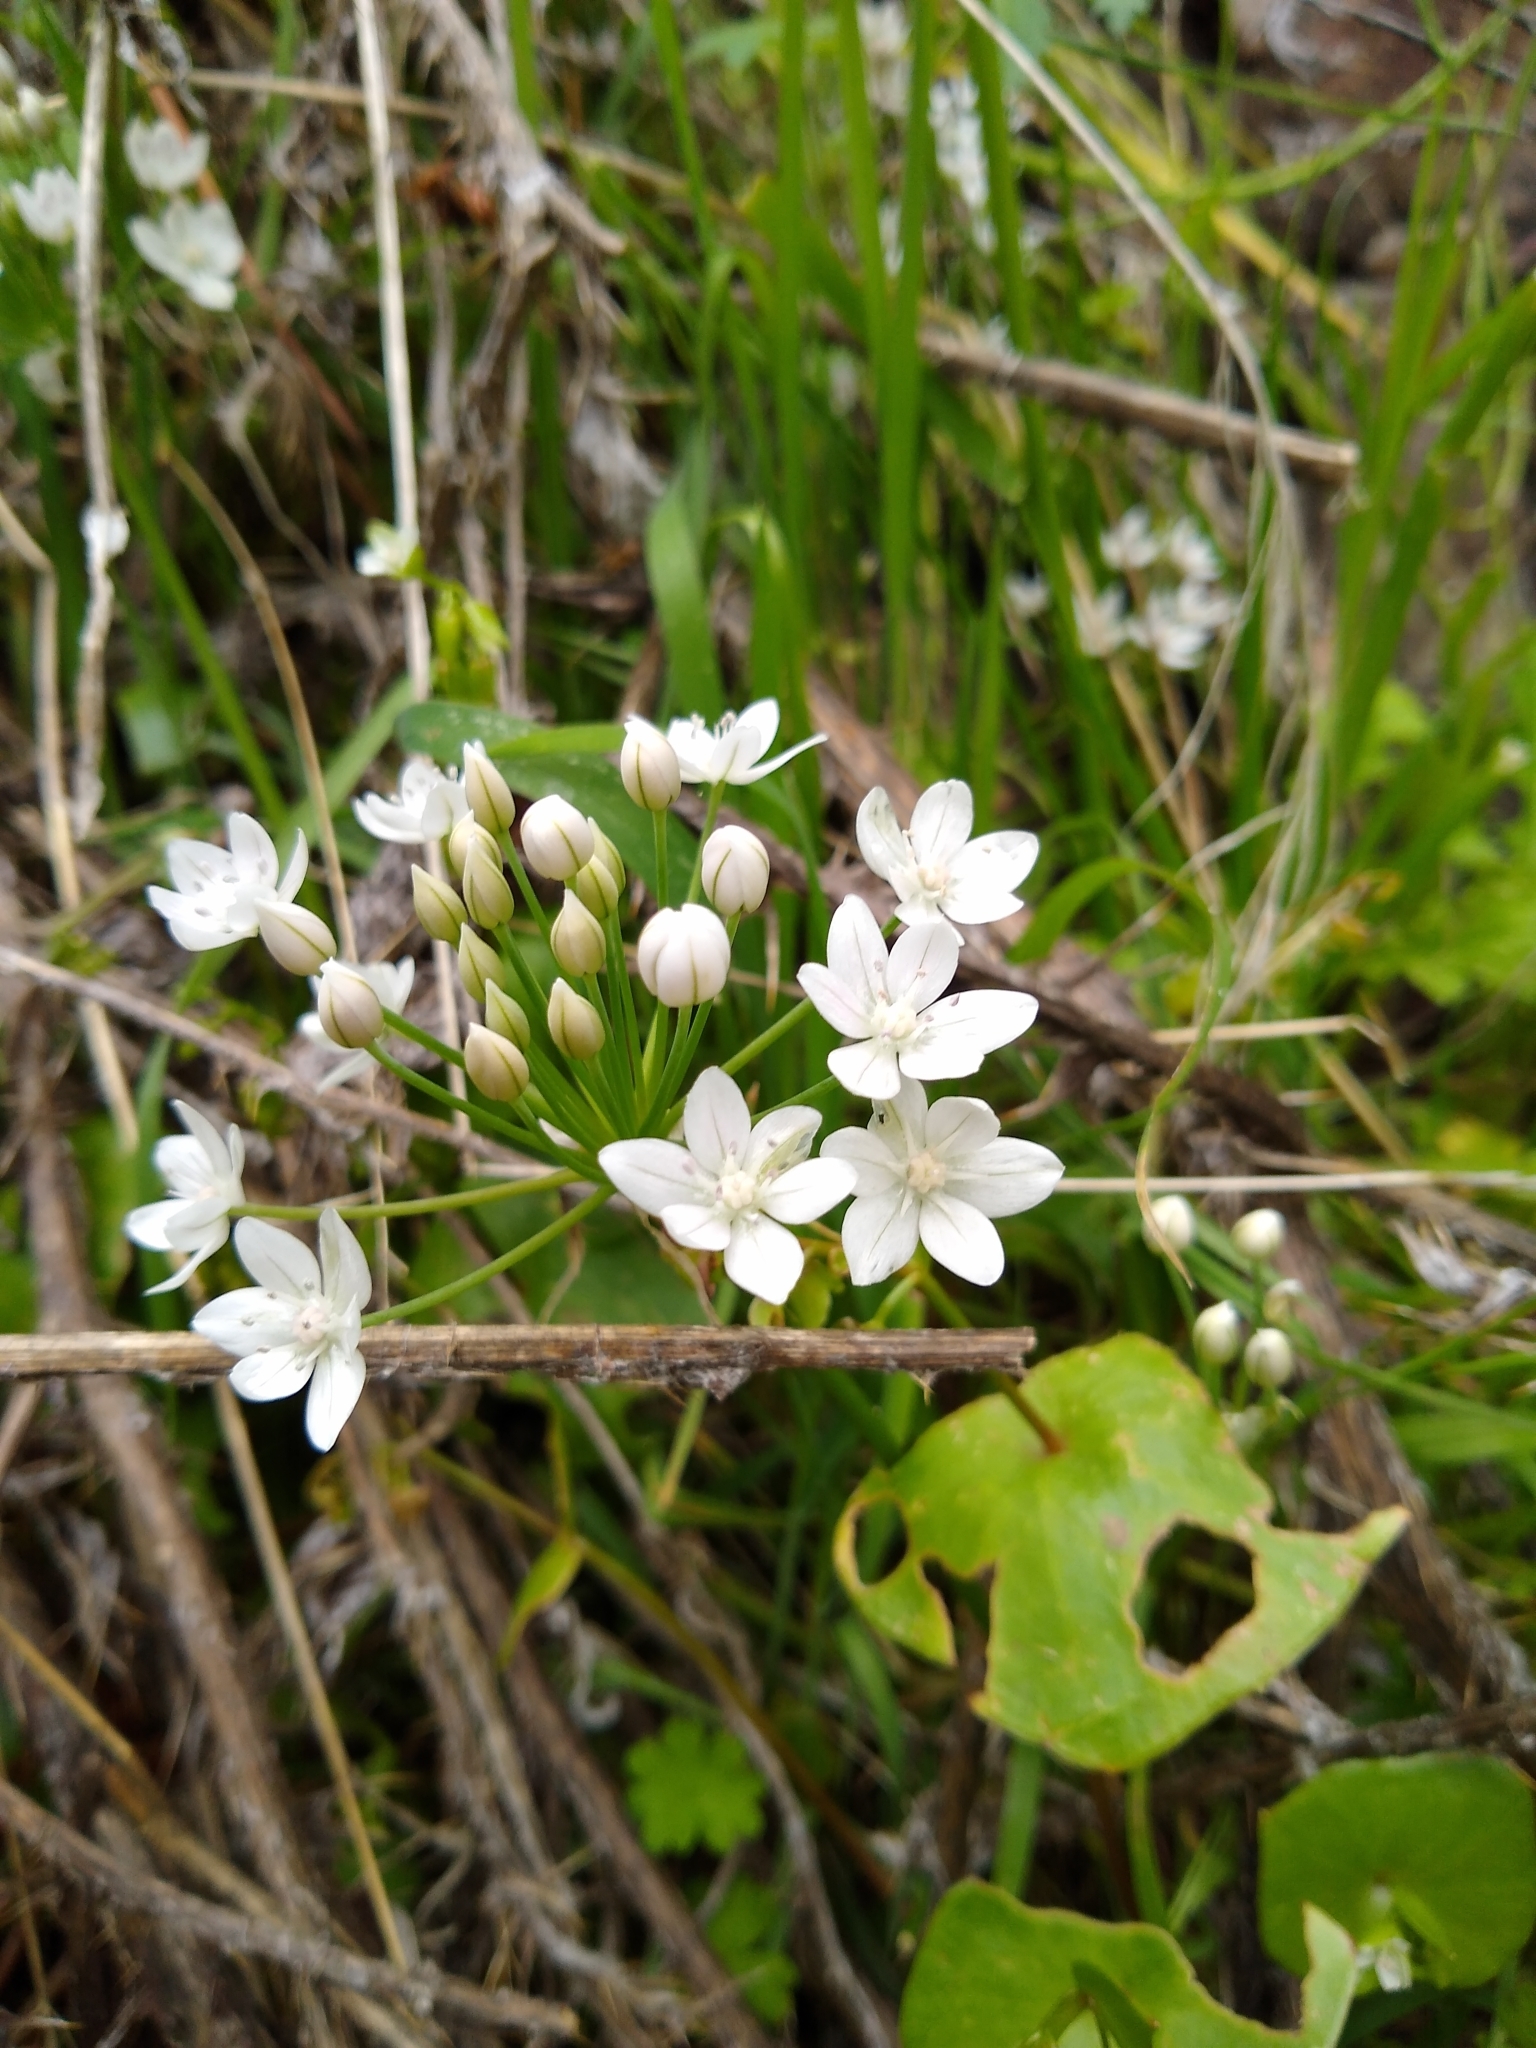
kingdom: Plantae
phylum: Tracheophyta
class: Liliopsida
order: Asparagales
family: Amaryllidaceae
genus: Allium
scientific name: Allium hyalinum
